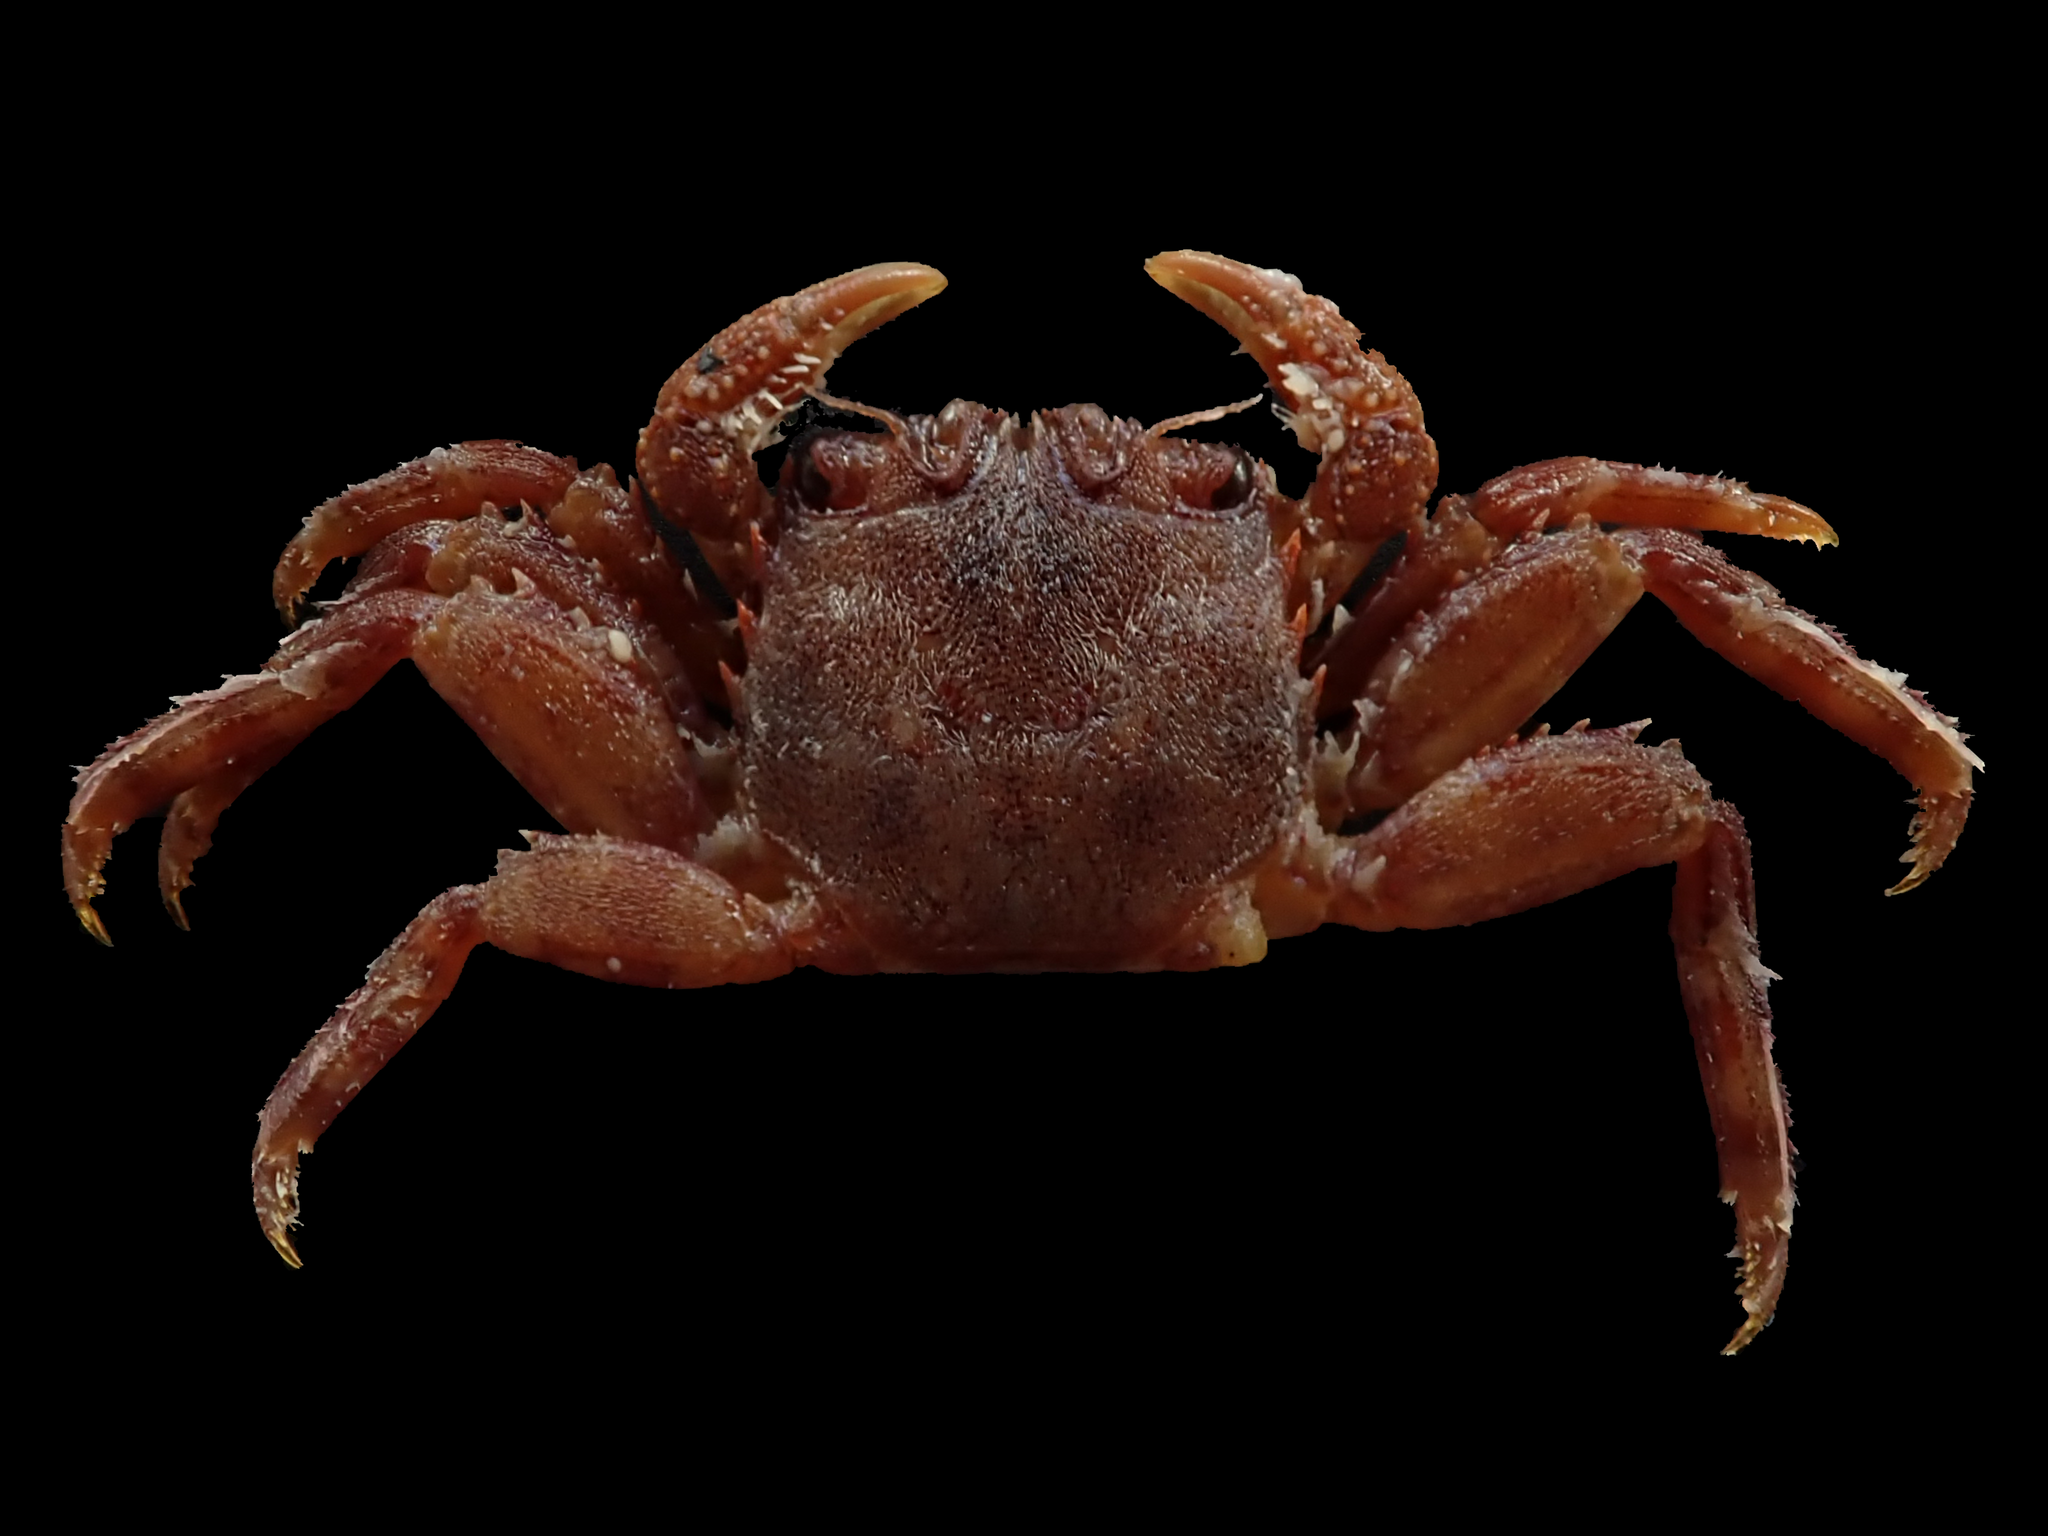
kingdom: Animalia
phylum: Arthropoda
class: Malacostraca
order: Decapoda
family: Plagusiidae
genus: Guinusia
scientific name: Guinusia chabrus
